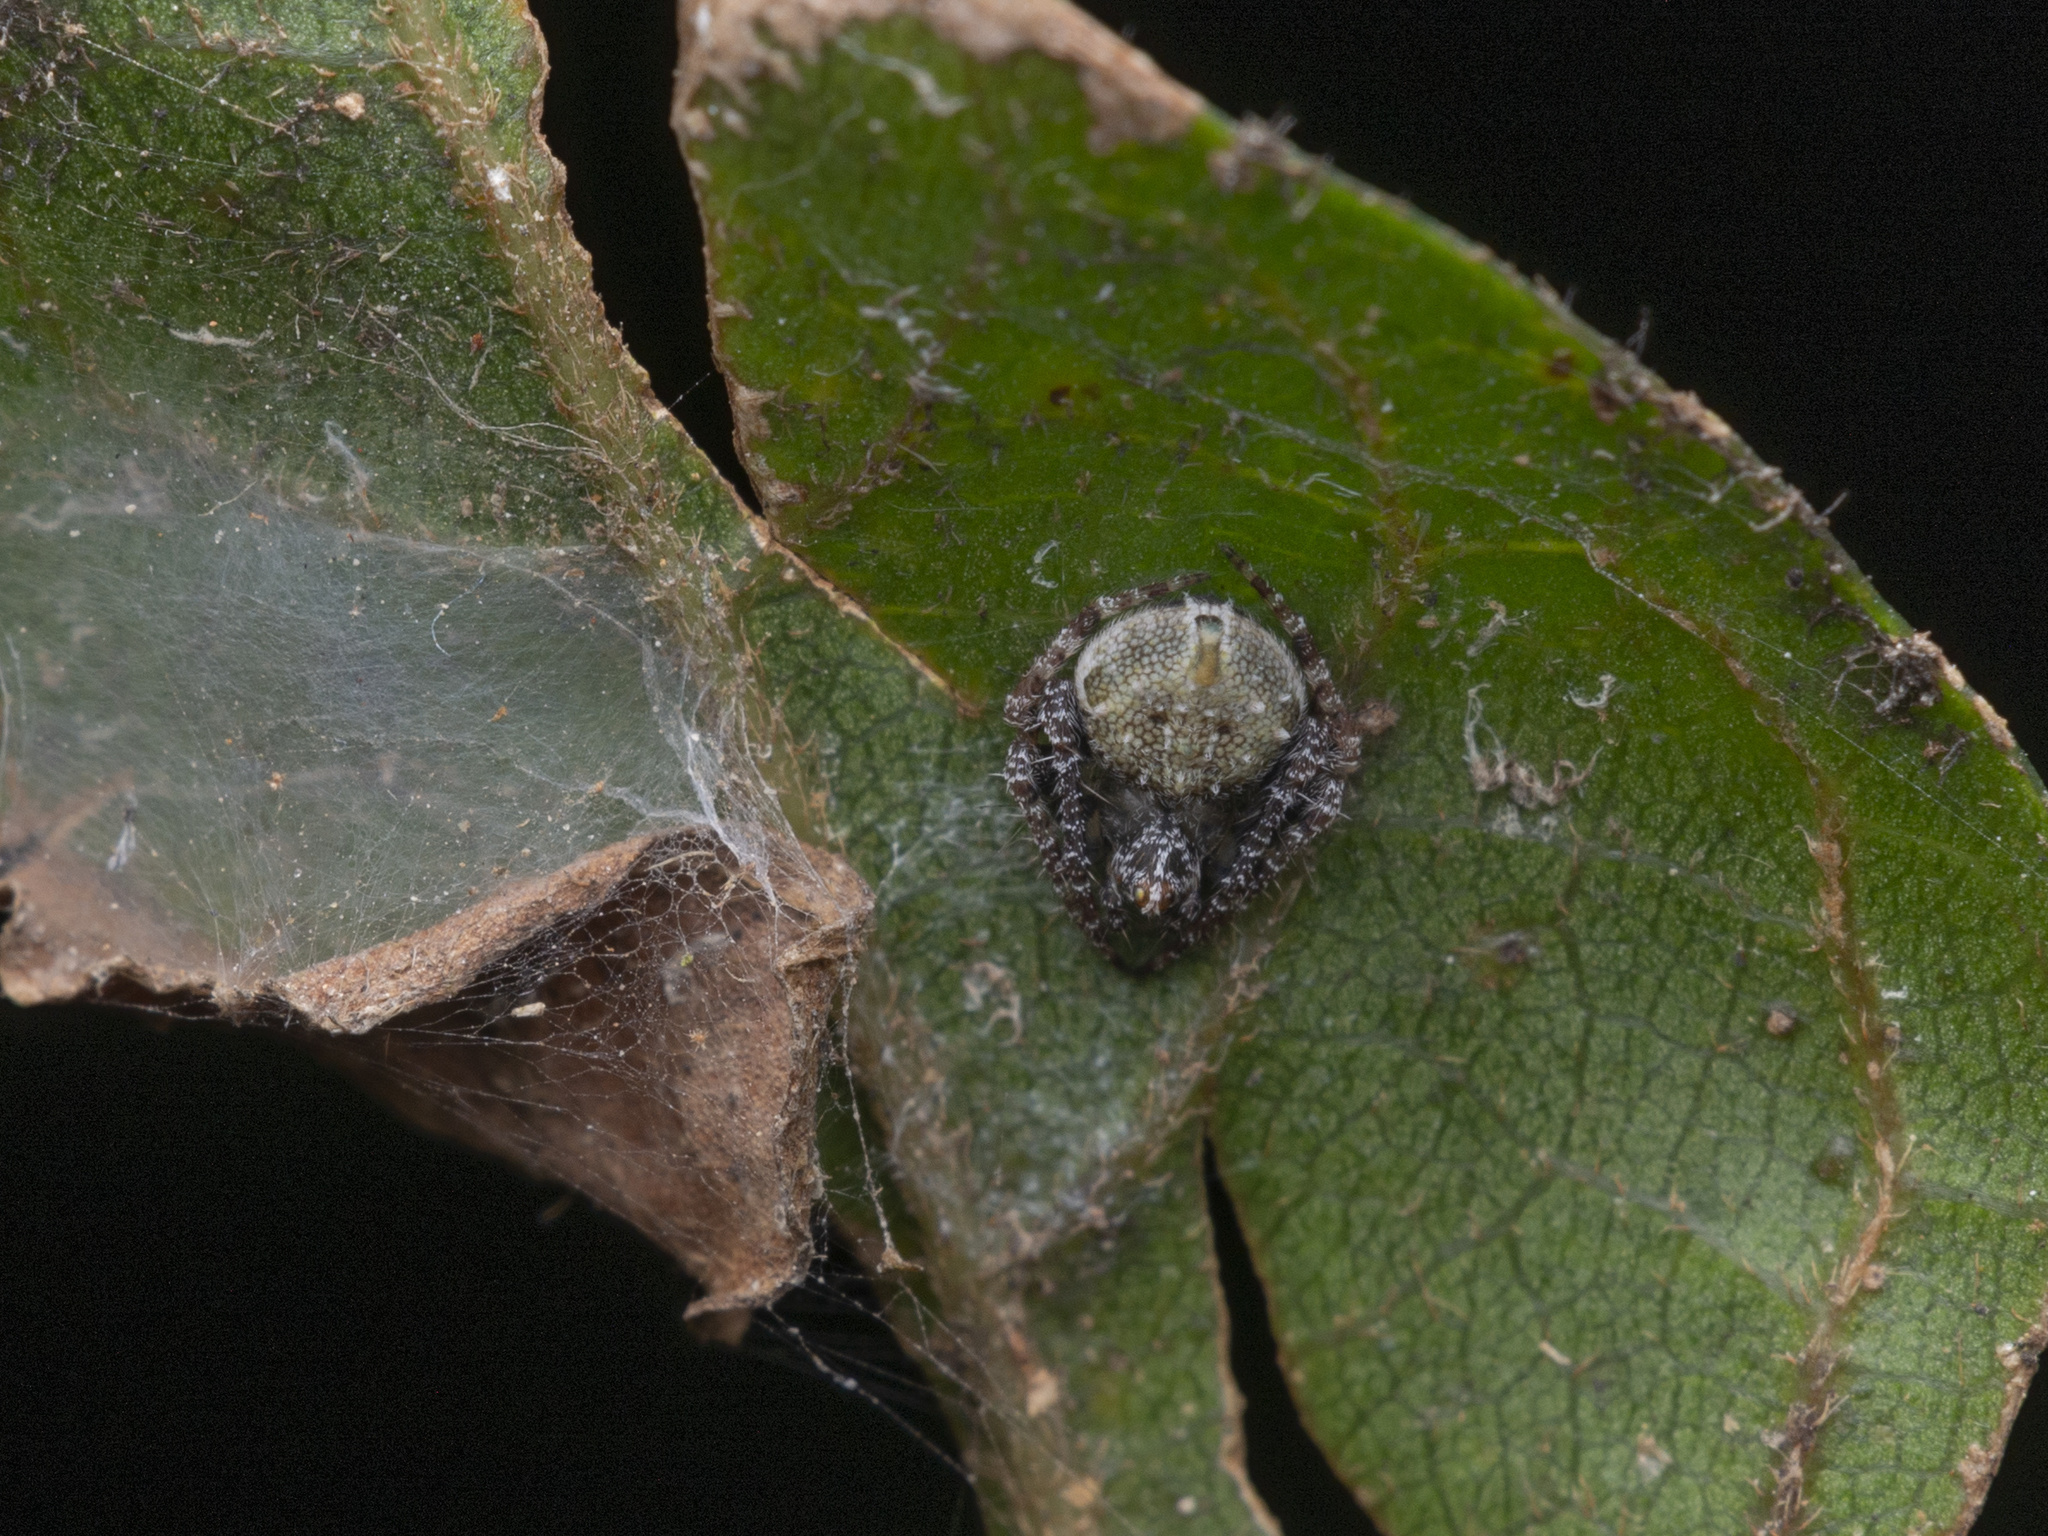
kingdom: Animalia
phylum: Arthropoda
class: Arachnida
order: Araneae
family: Araneidae
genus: Eriovixia
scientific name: Eriovixia laglaizei
